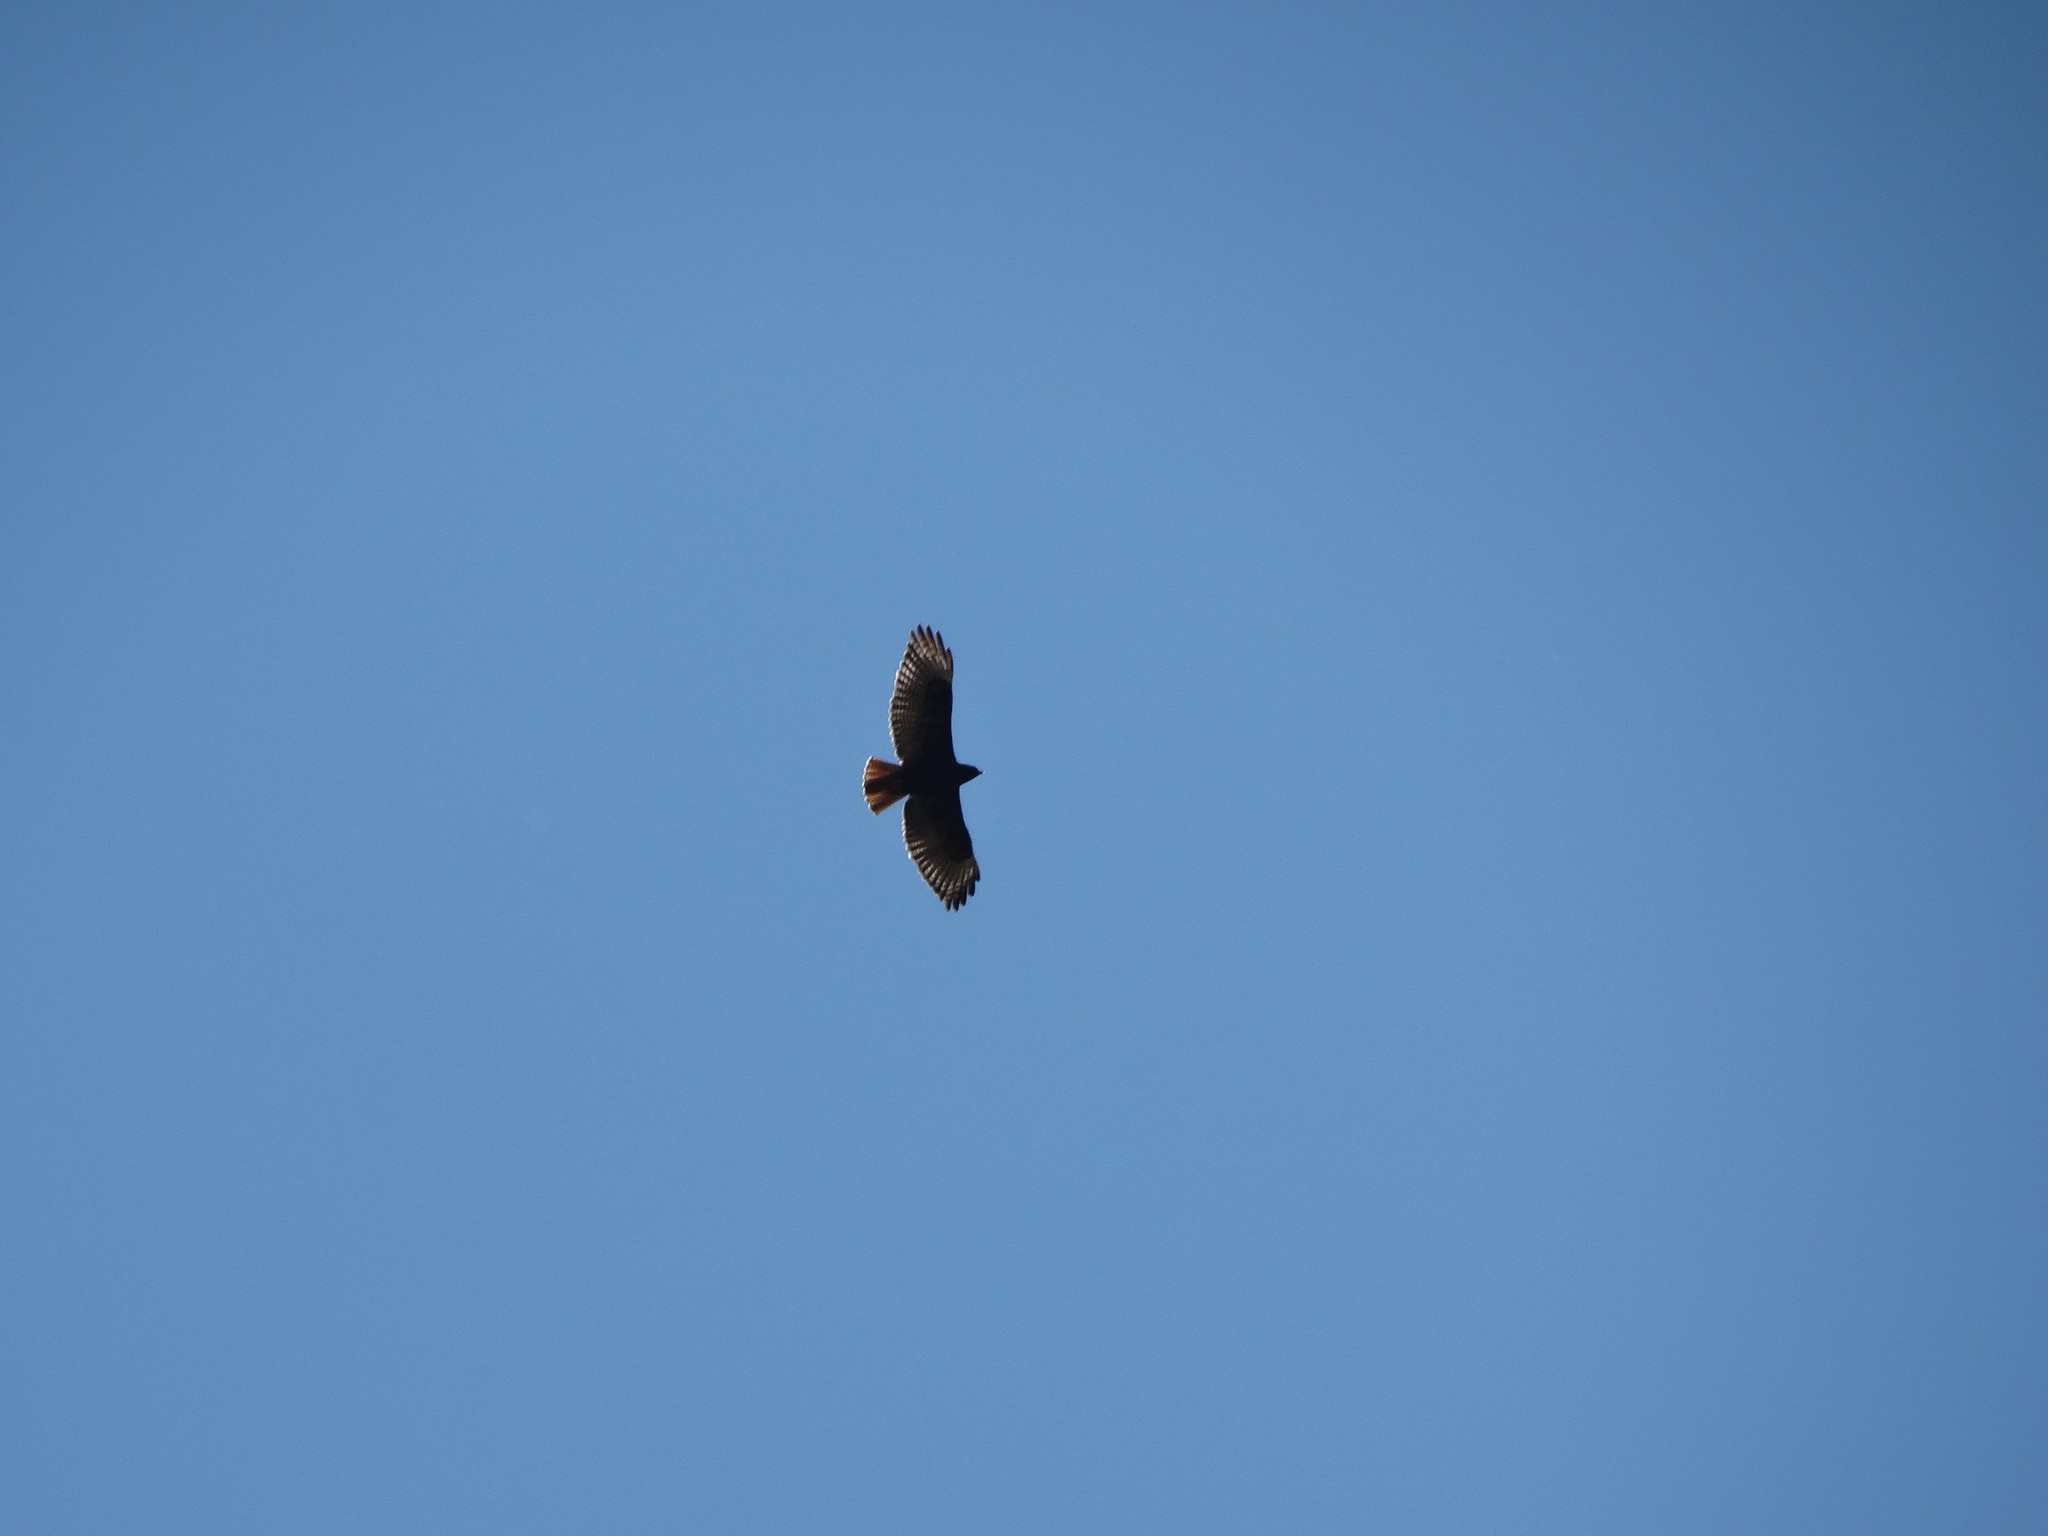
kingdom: Animalia
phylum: Chordata
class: Aves
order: Accipitriformes
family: Accipitridae
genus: Buteo
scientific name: Buteo jamaicensis
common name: Red-tailed hawk
